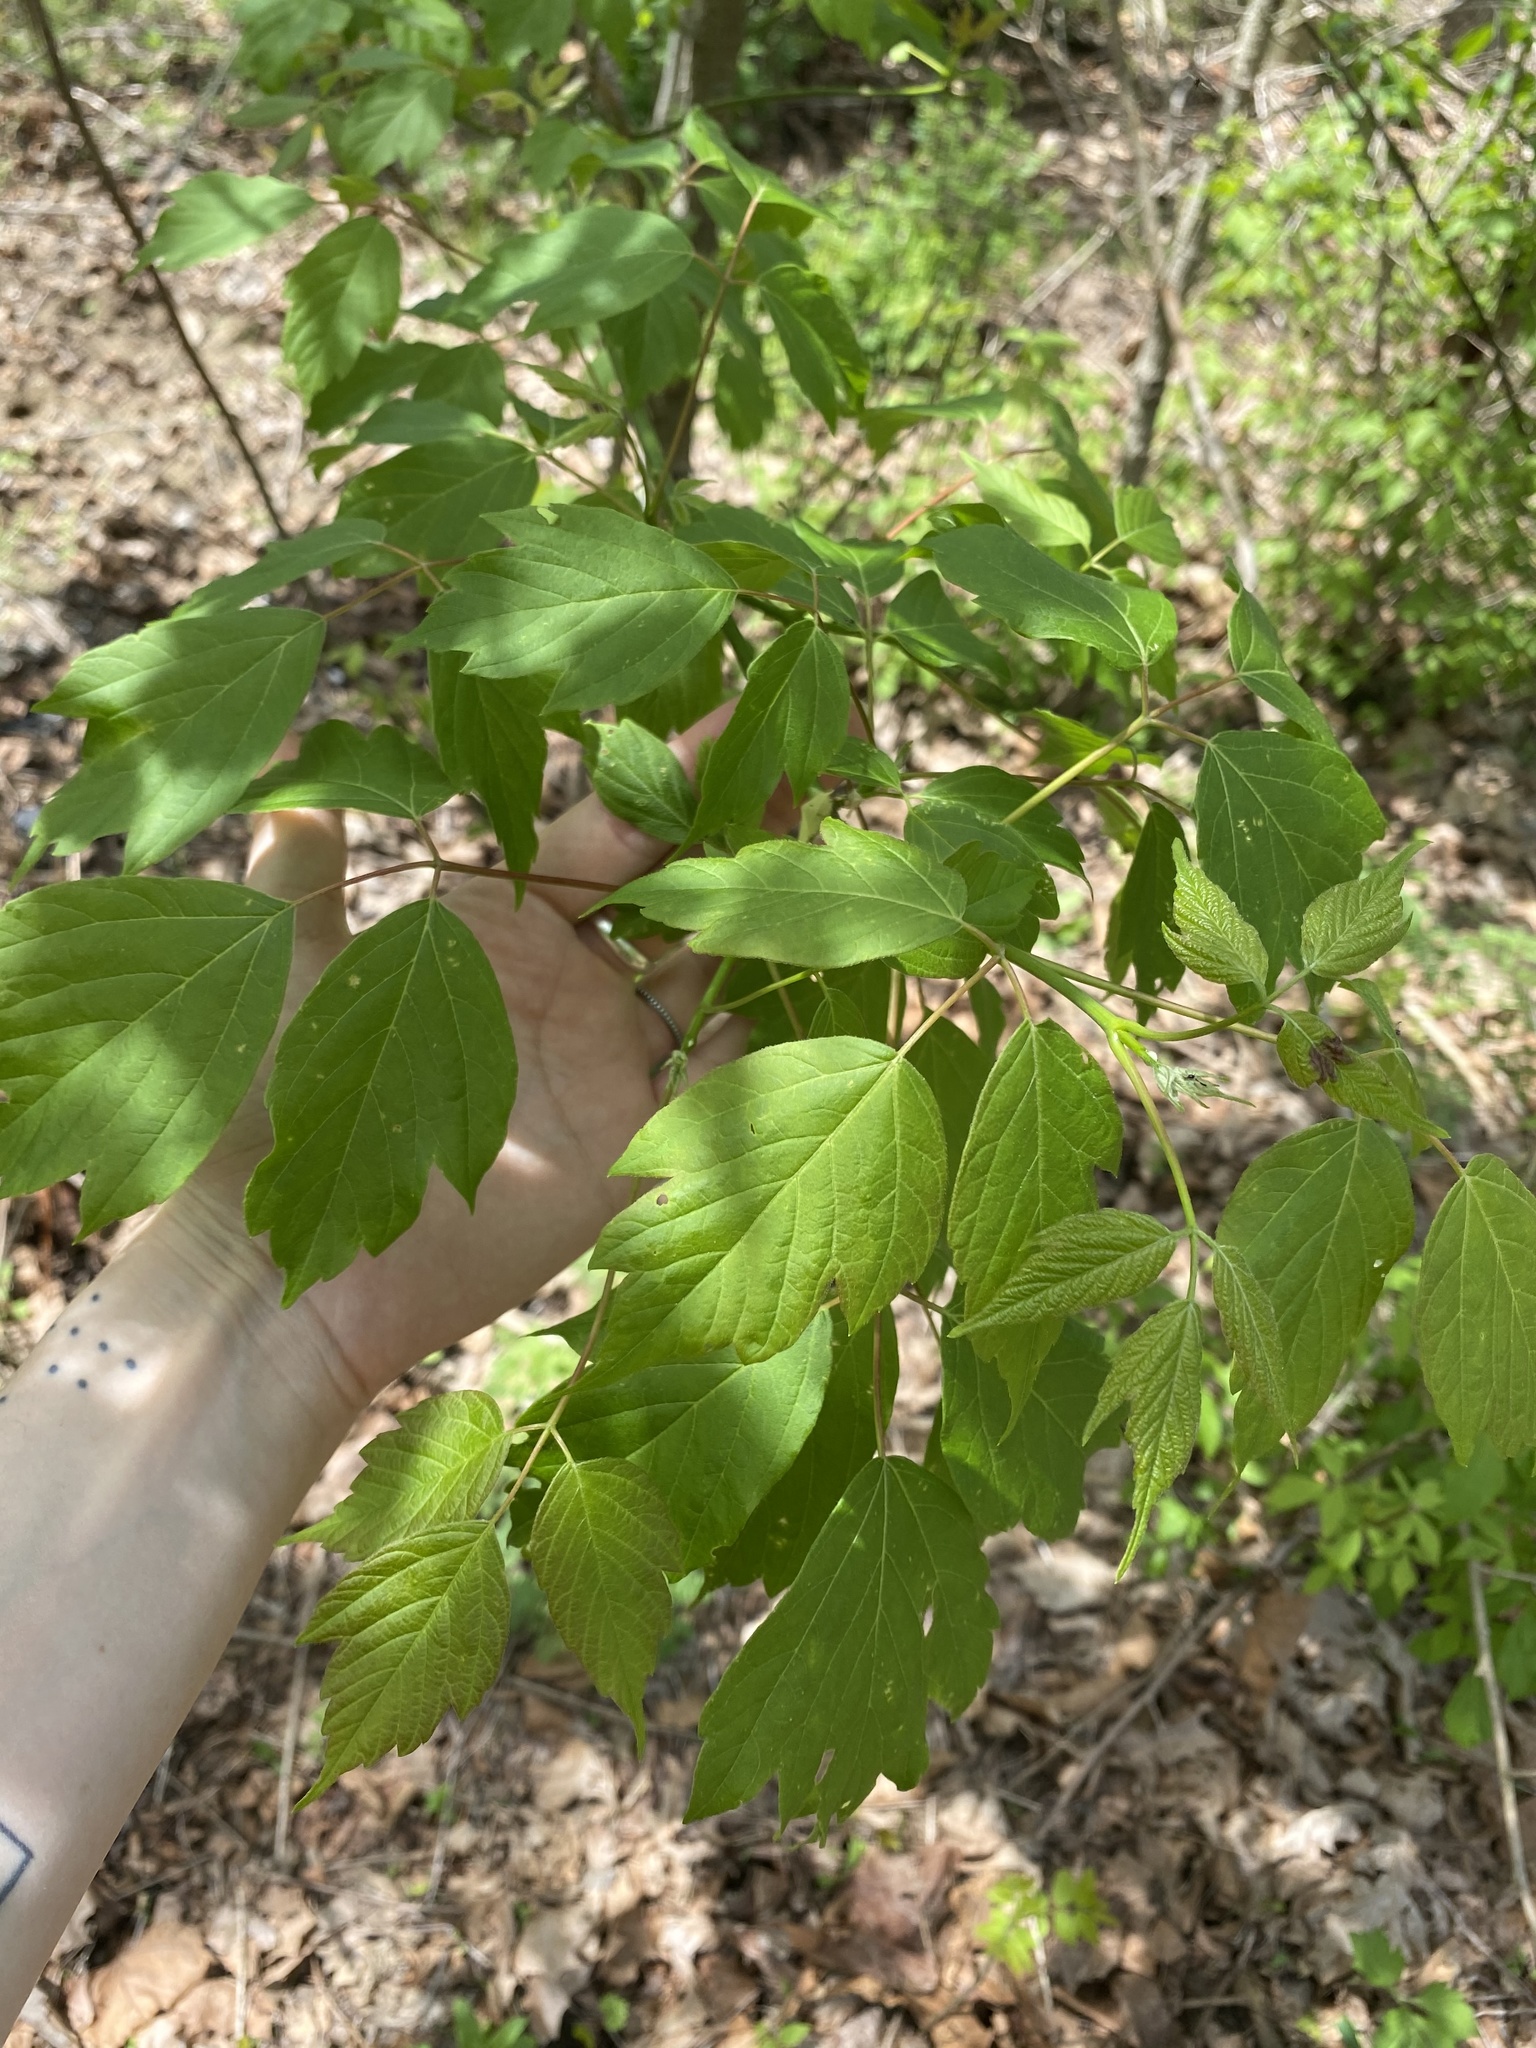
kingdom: Plantae
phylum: Tracheophyta
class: Magnoliopsida
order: Sapindales
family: Sapindaceae
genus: Acer
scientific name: Acer negundo
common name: Ashleaf maple
